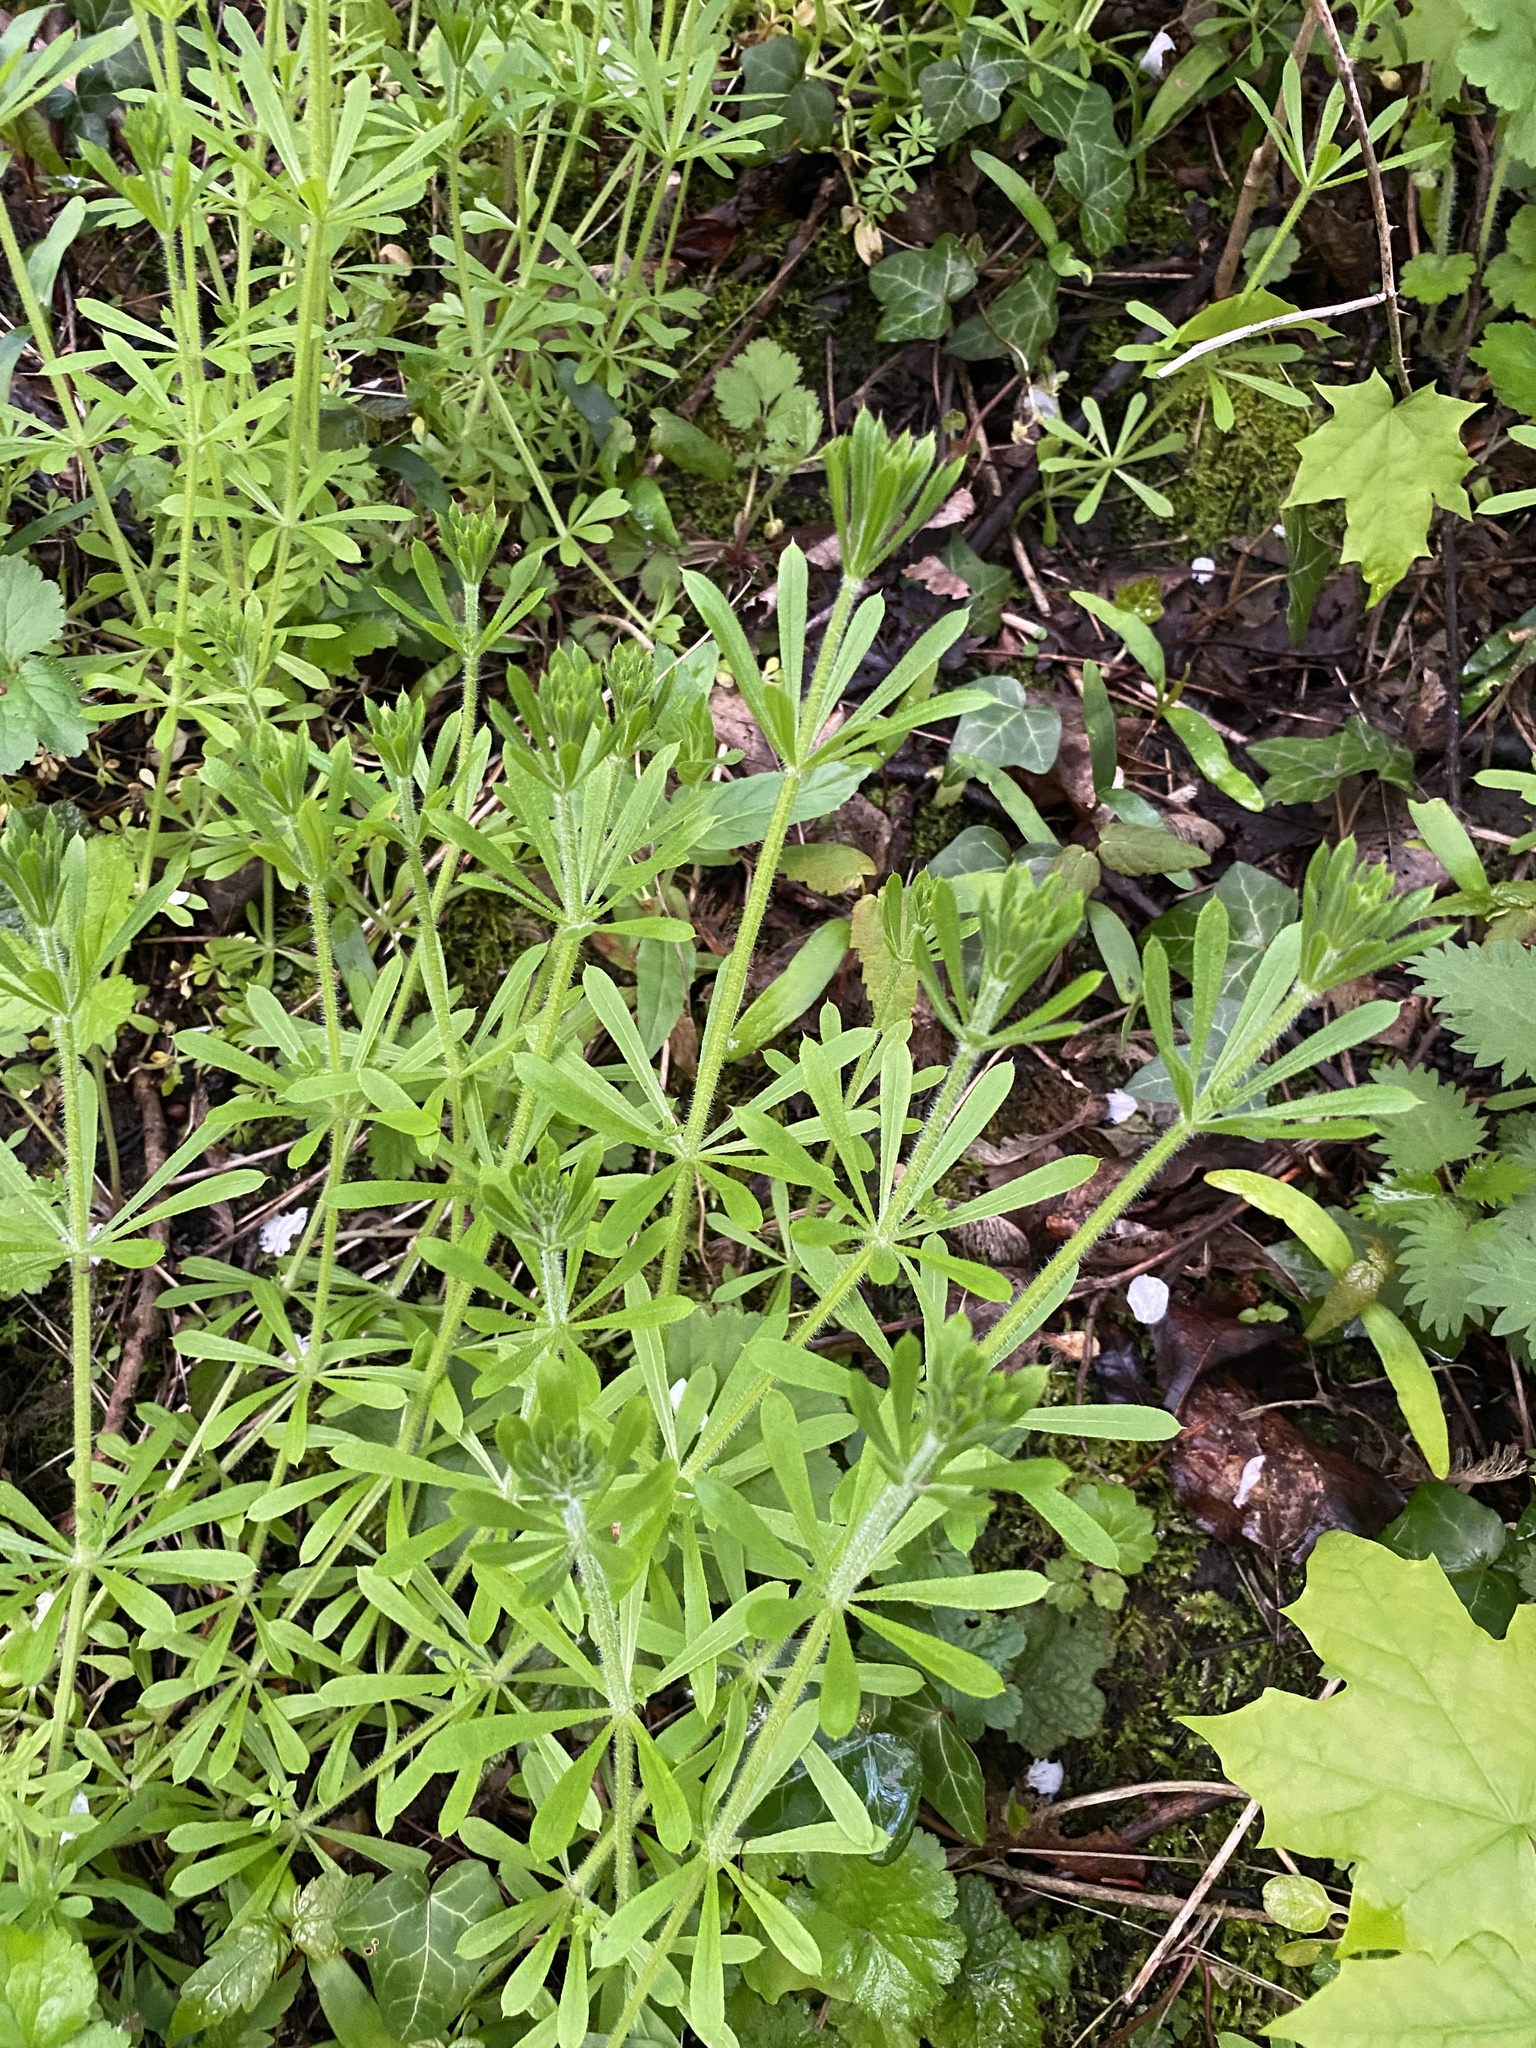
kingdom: Plantae
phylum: Tracheophyta
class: Magnoliopsida
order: Gentianales
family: Rubiaceae
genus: Galium
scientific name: Galium aparine
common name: Cleavers
